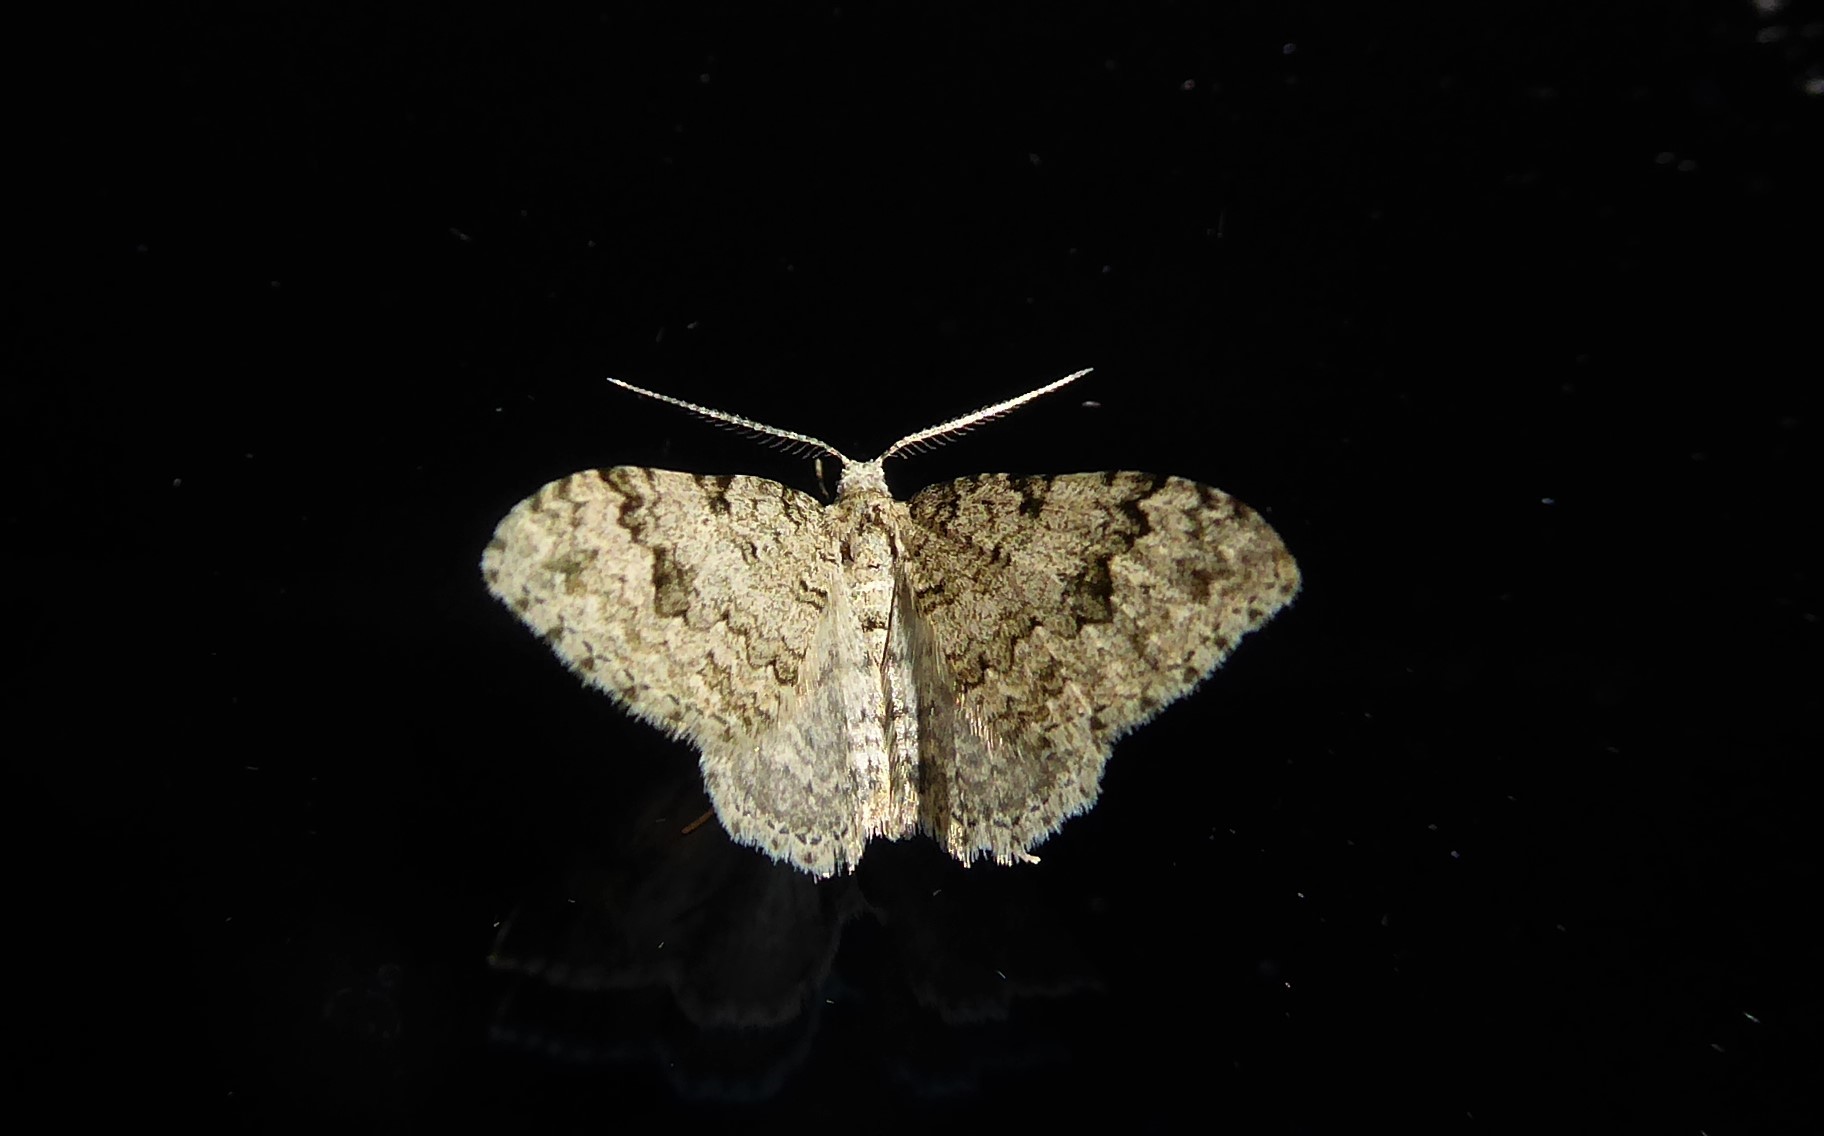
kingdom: Animalia
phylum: Arthropoda
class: Insecta
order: Lepidoptera
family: Geometridae
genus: Helastia
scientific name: Helastia cinerearia
